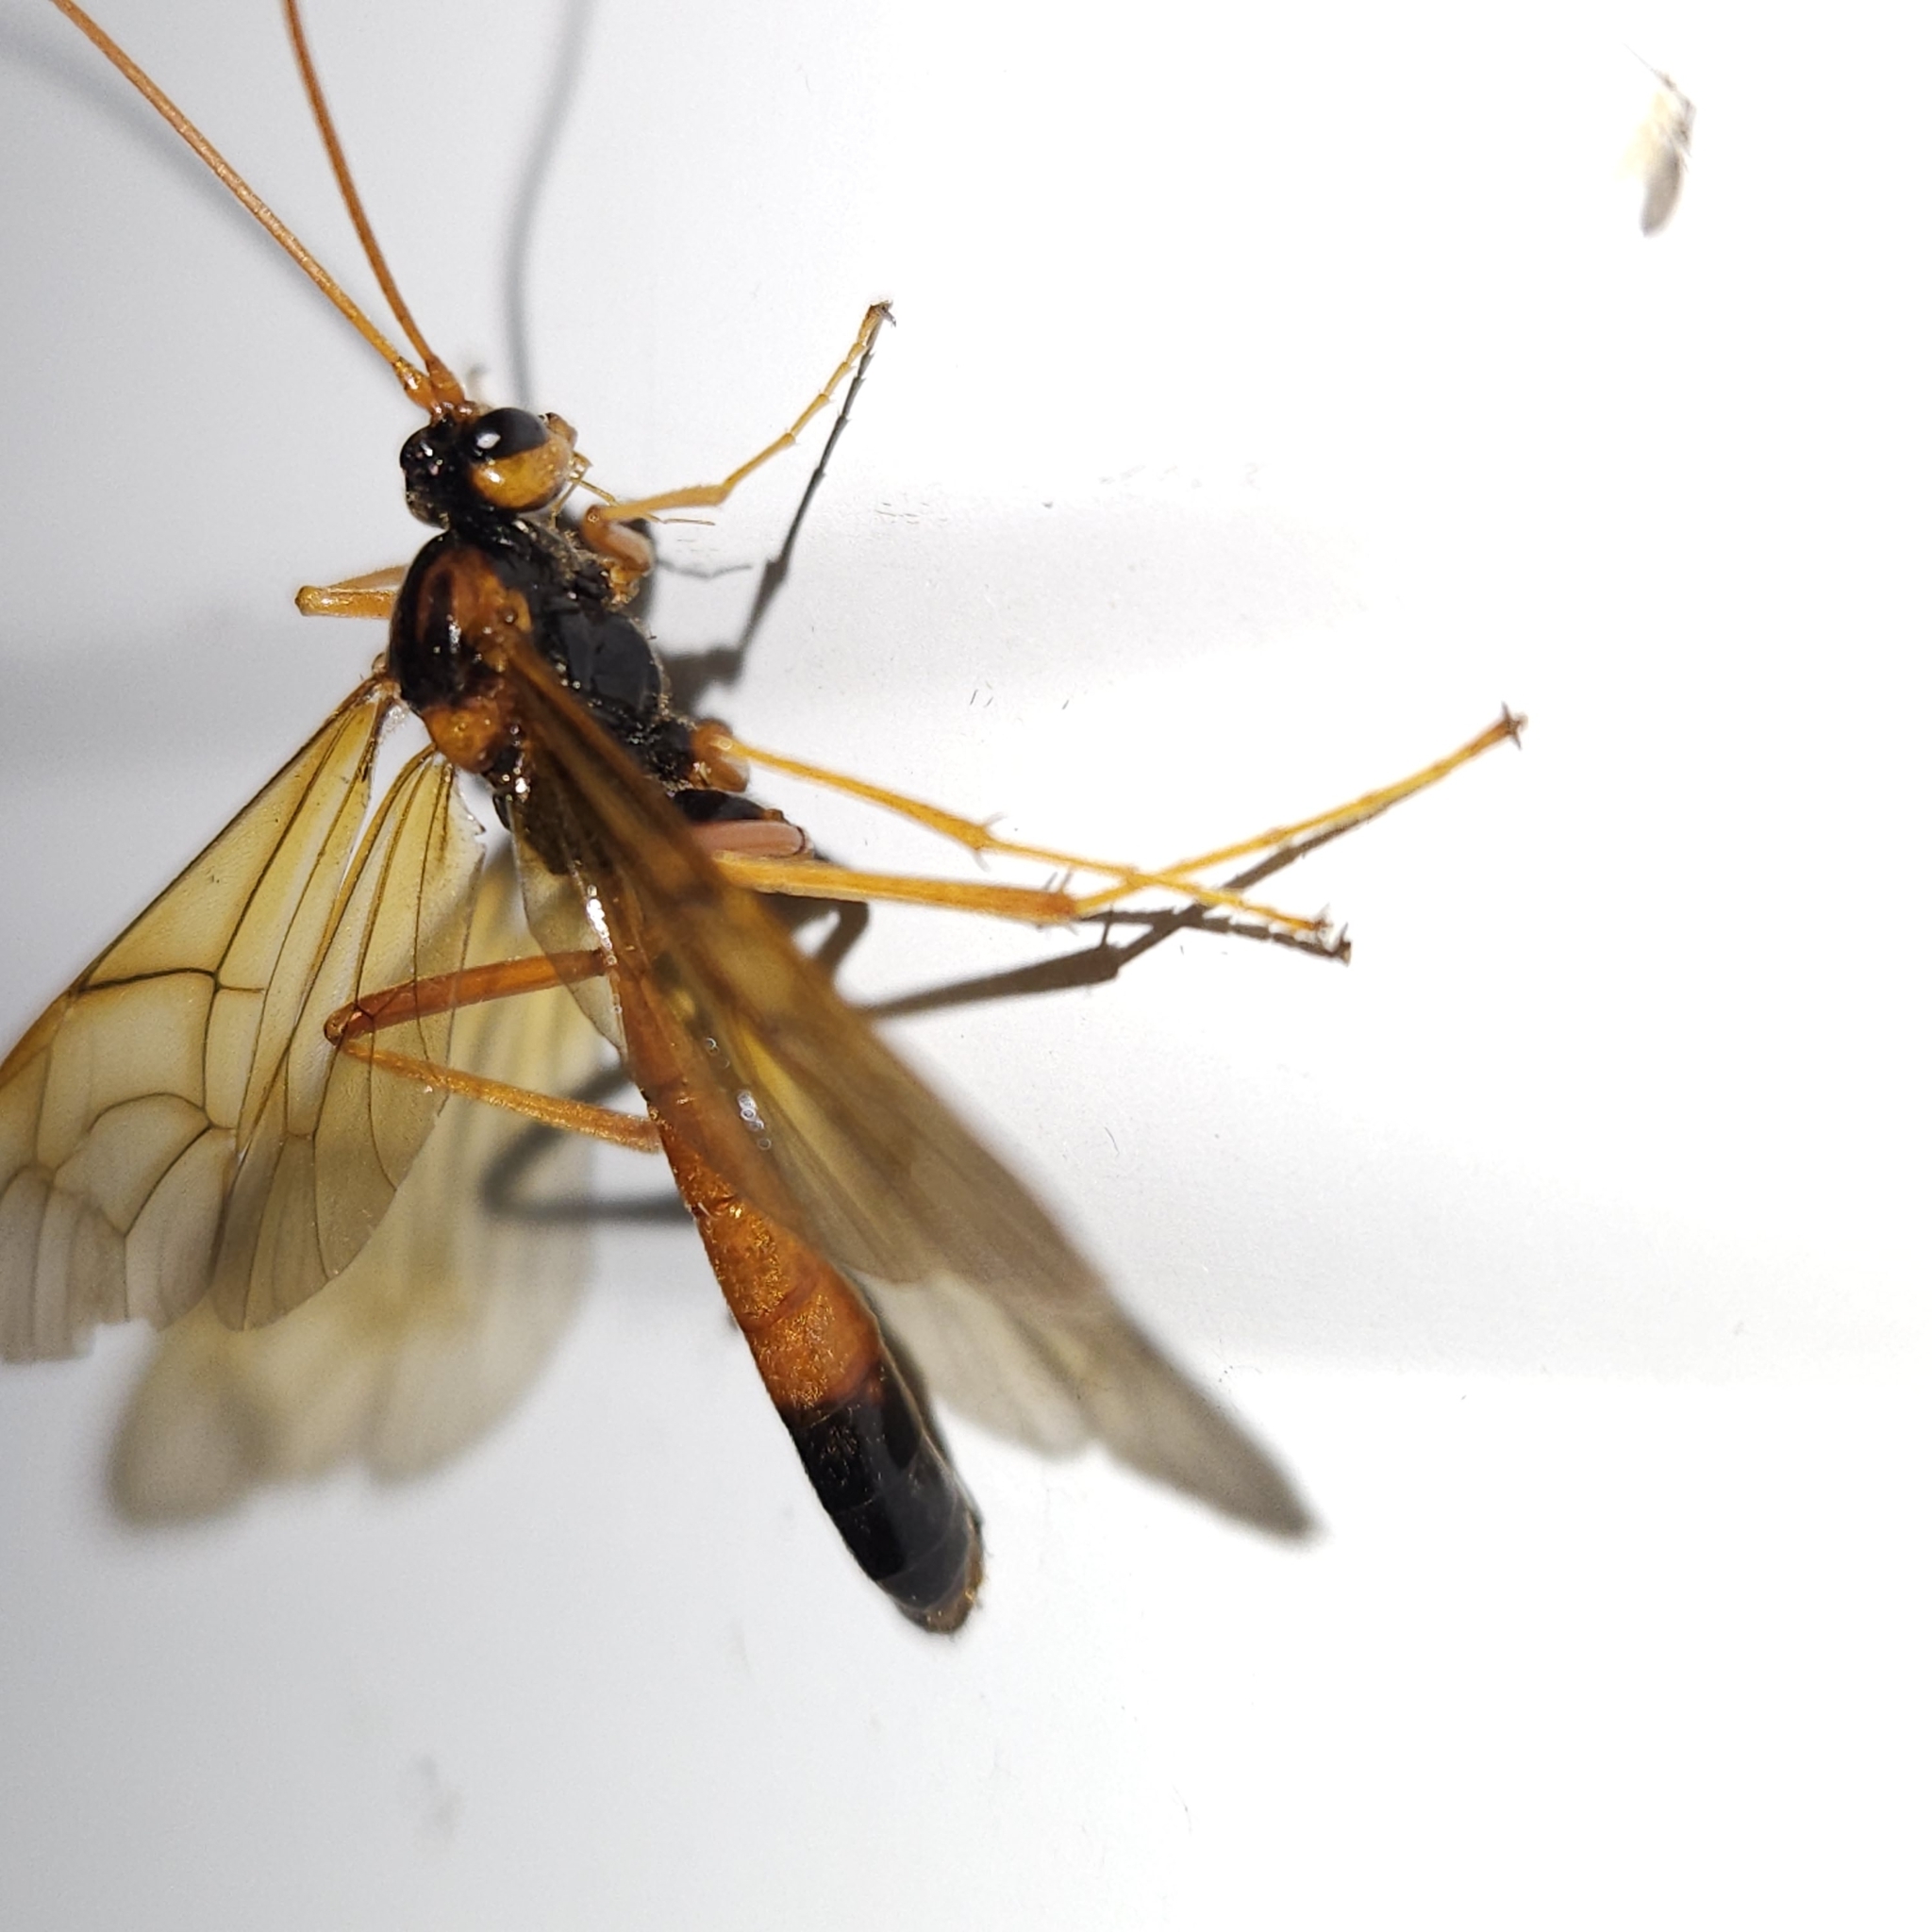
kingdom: Animalia
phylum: Arthropoda
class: Insecta
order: Hymenoptera
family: Ichneumonidae
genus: Opheltes
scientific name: Opheltes glaucopterus
